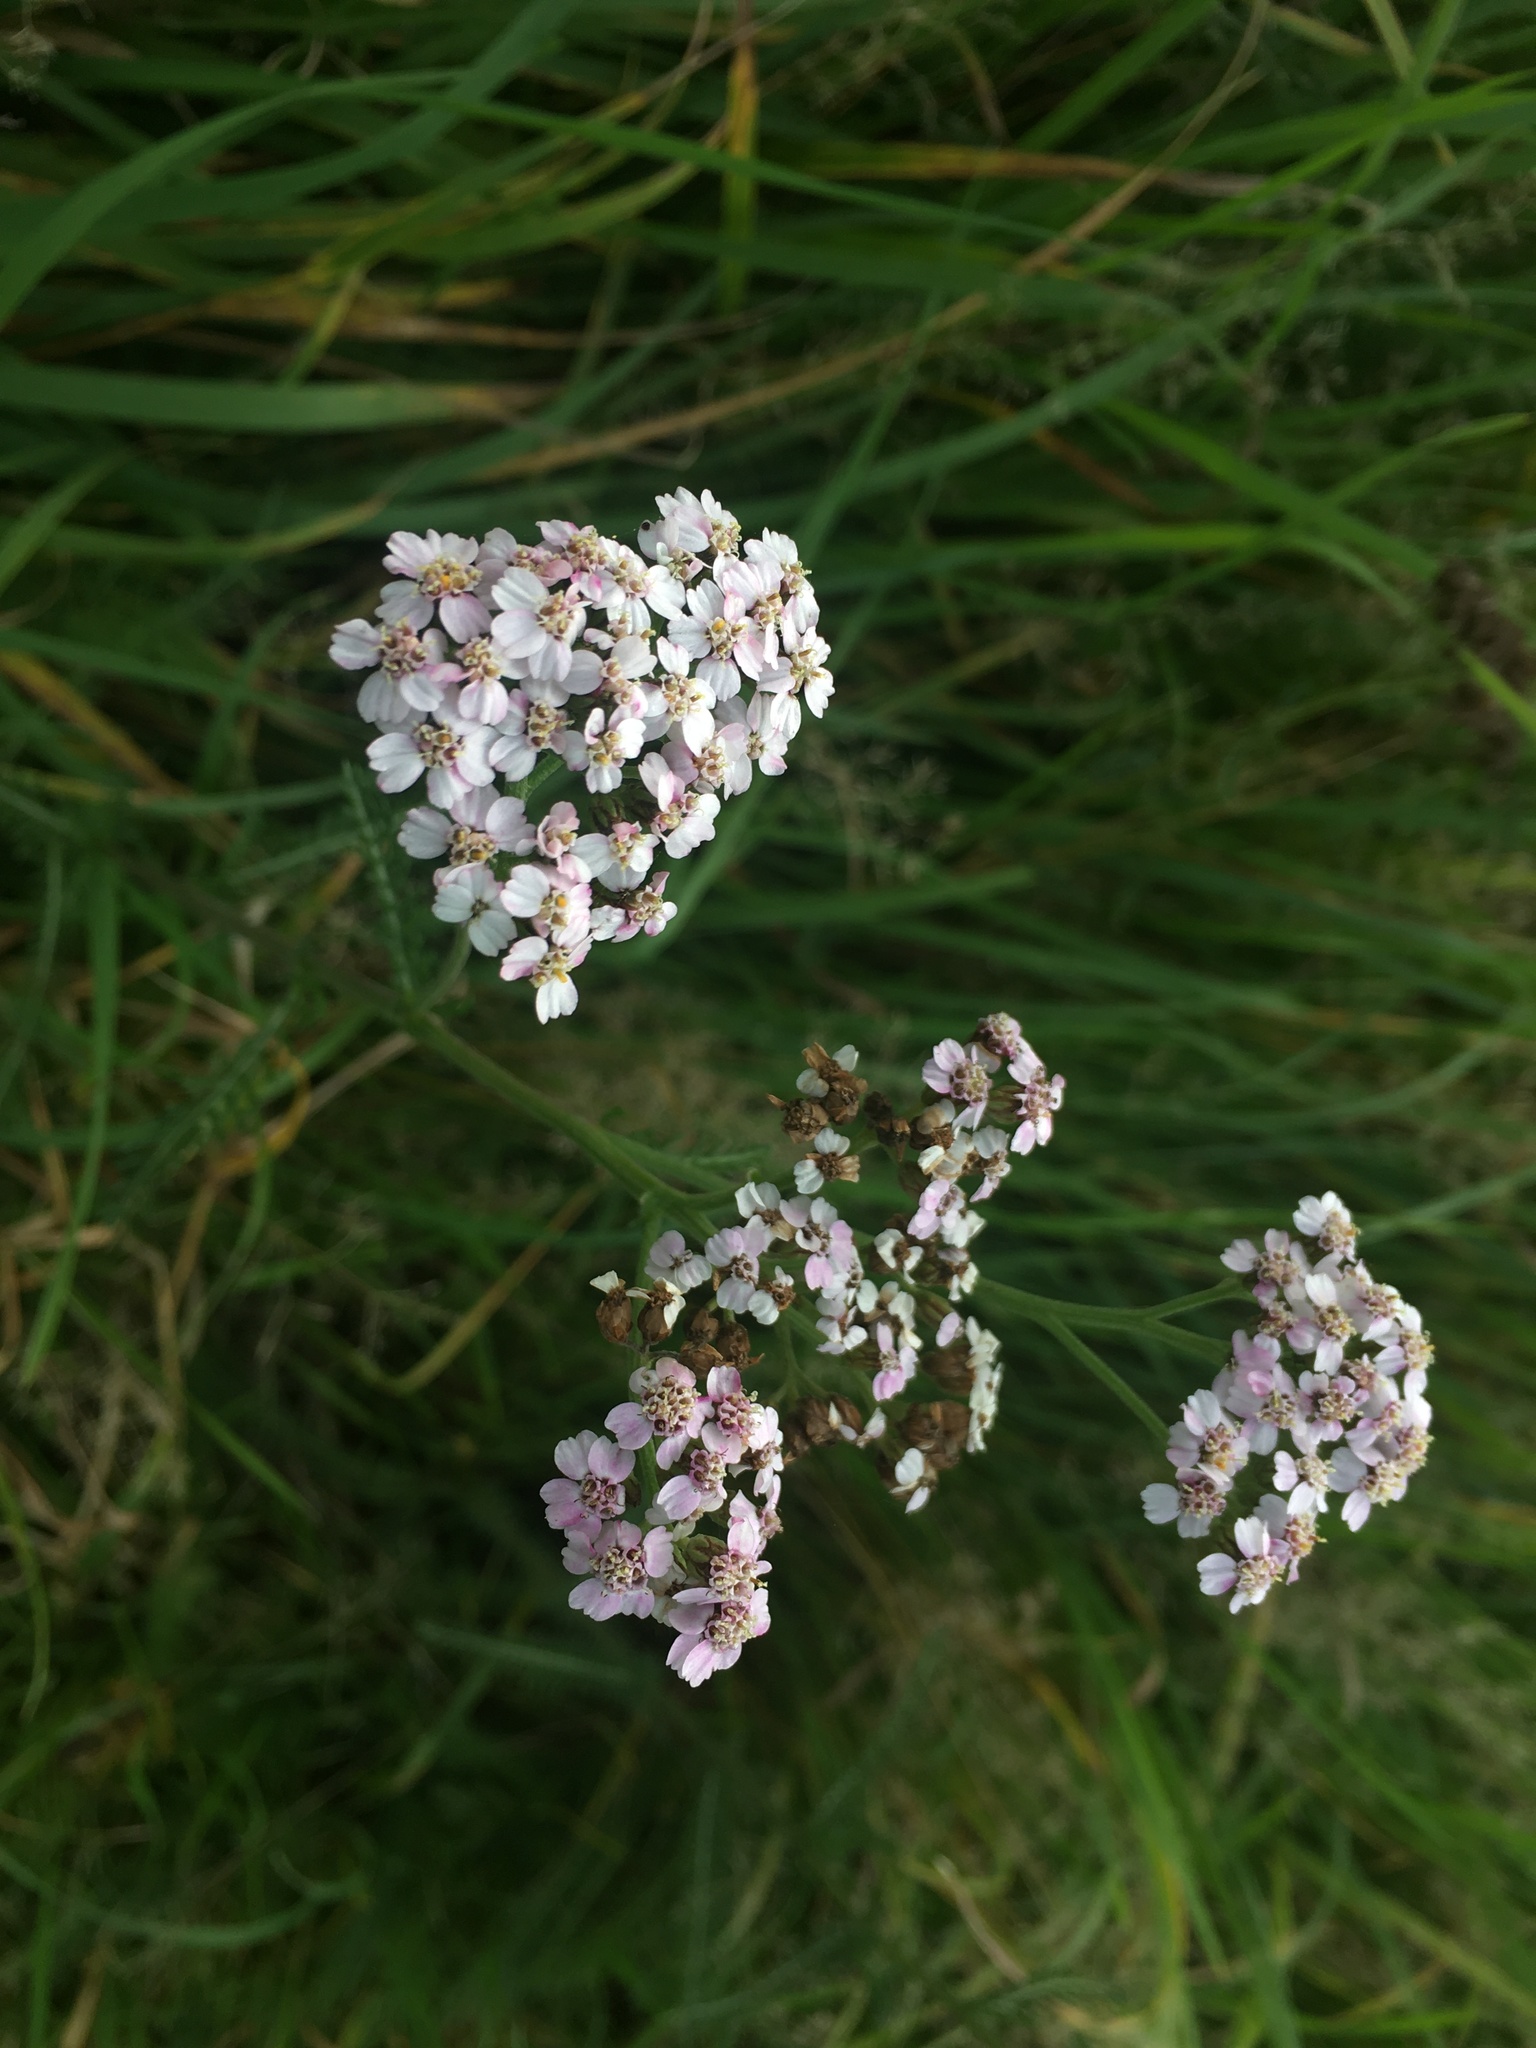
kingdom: Plantae
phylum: Tracheophyta
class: Magnoliopsida
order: Asterales
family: Asteraceae
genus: Achillea
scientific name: Achillea millefolium
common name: Yarrow
